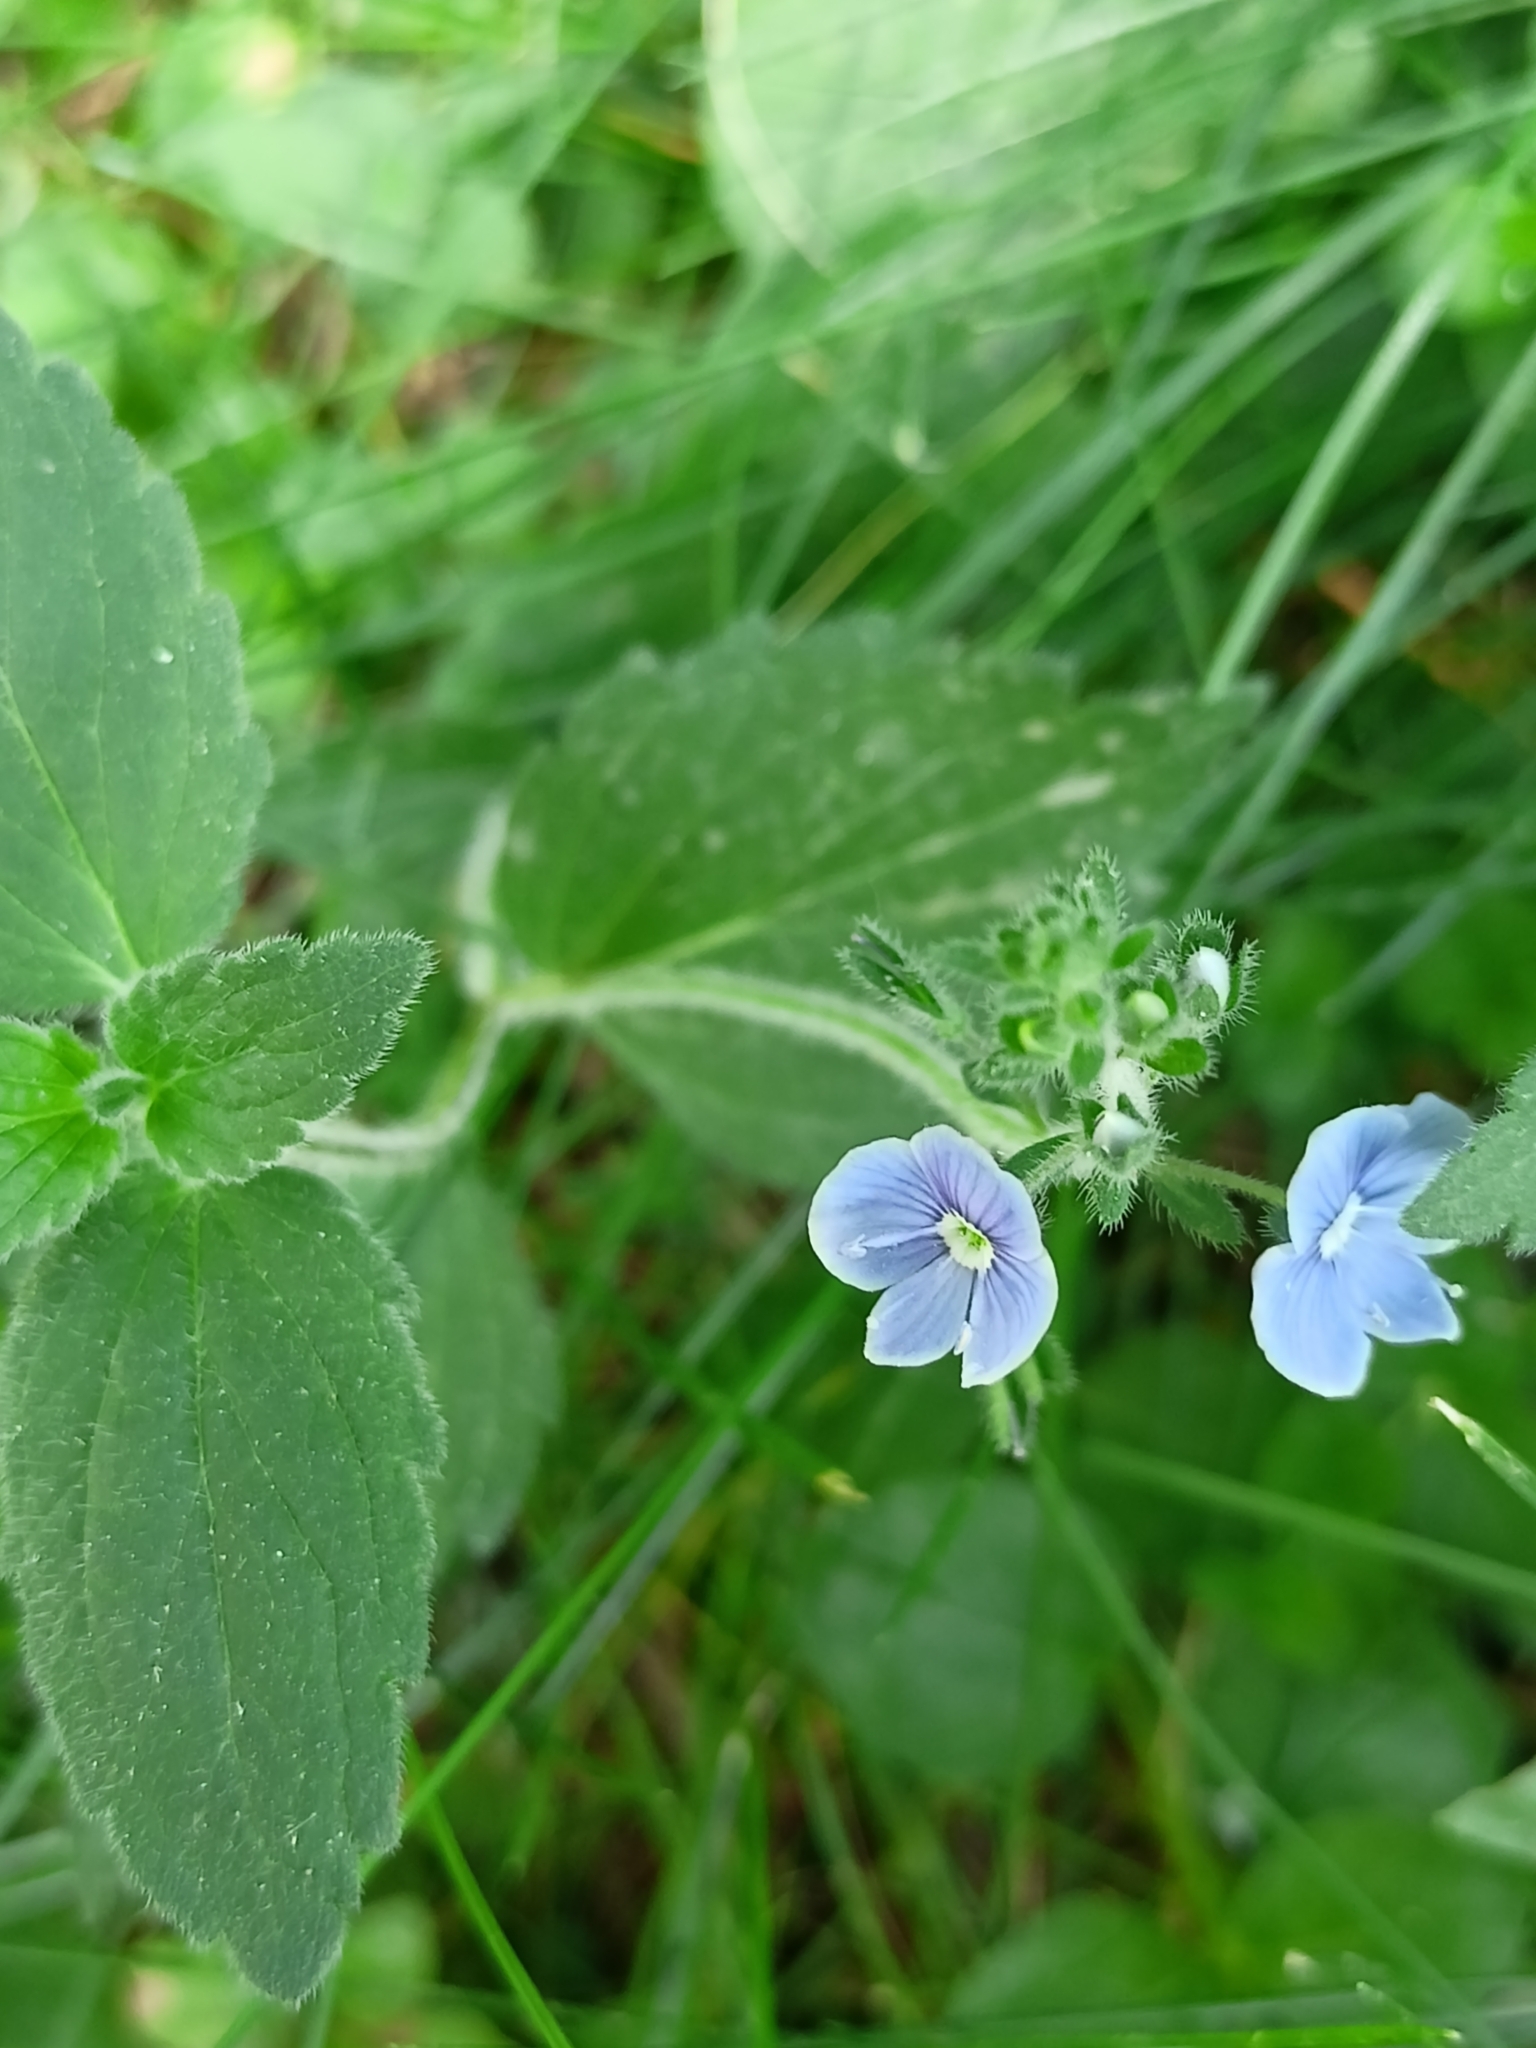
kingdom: Plantae
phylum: Tracheophyta
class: Magnoliopsida
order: Lamiales
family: Plantaginaceae
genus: Veronica
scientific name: Veronica chamaedrys
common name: Germander speedwell
